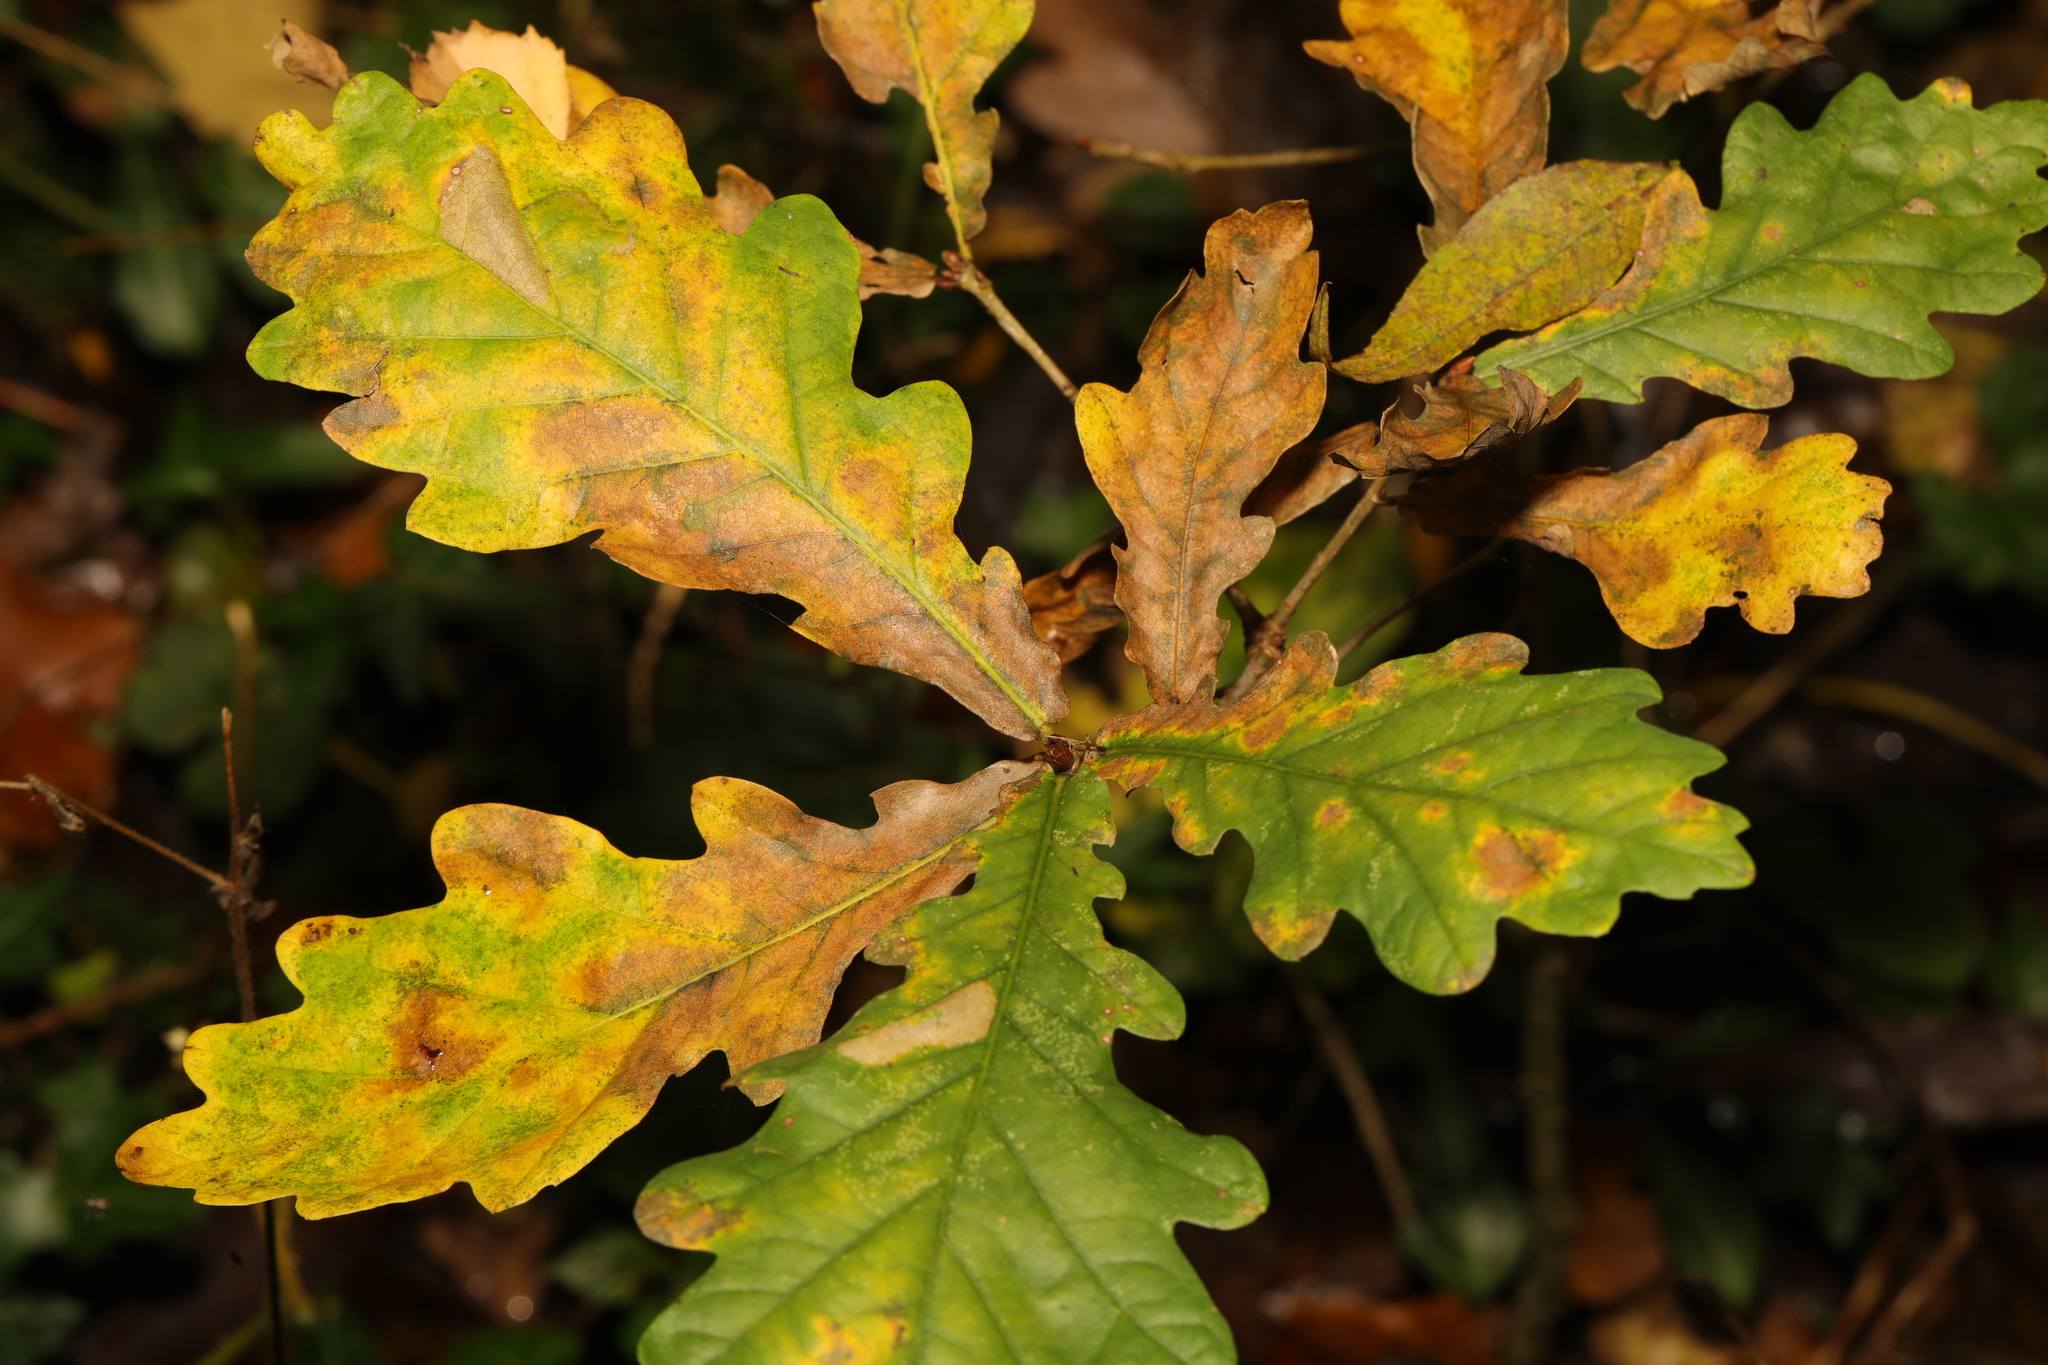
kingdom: Plantae
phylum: Tracheophyta
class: Magnoliopsida
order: Fagales
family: Fagaceae
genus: Quercus
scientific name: Quercus robur
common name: Pedunculate oak
